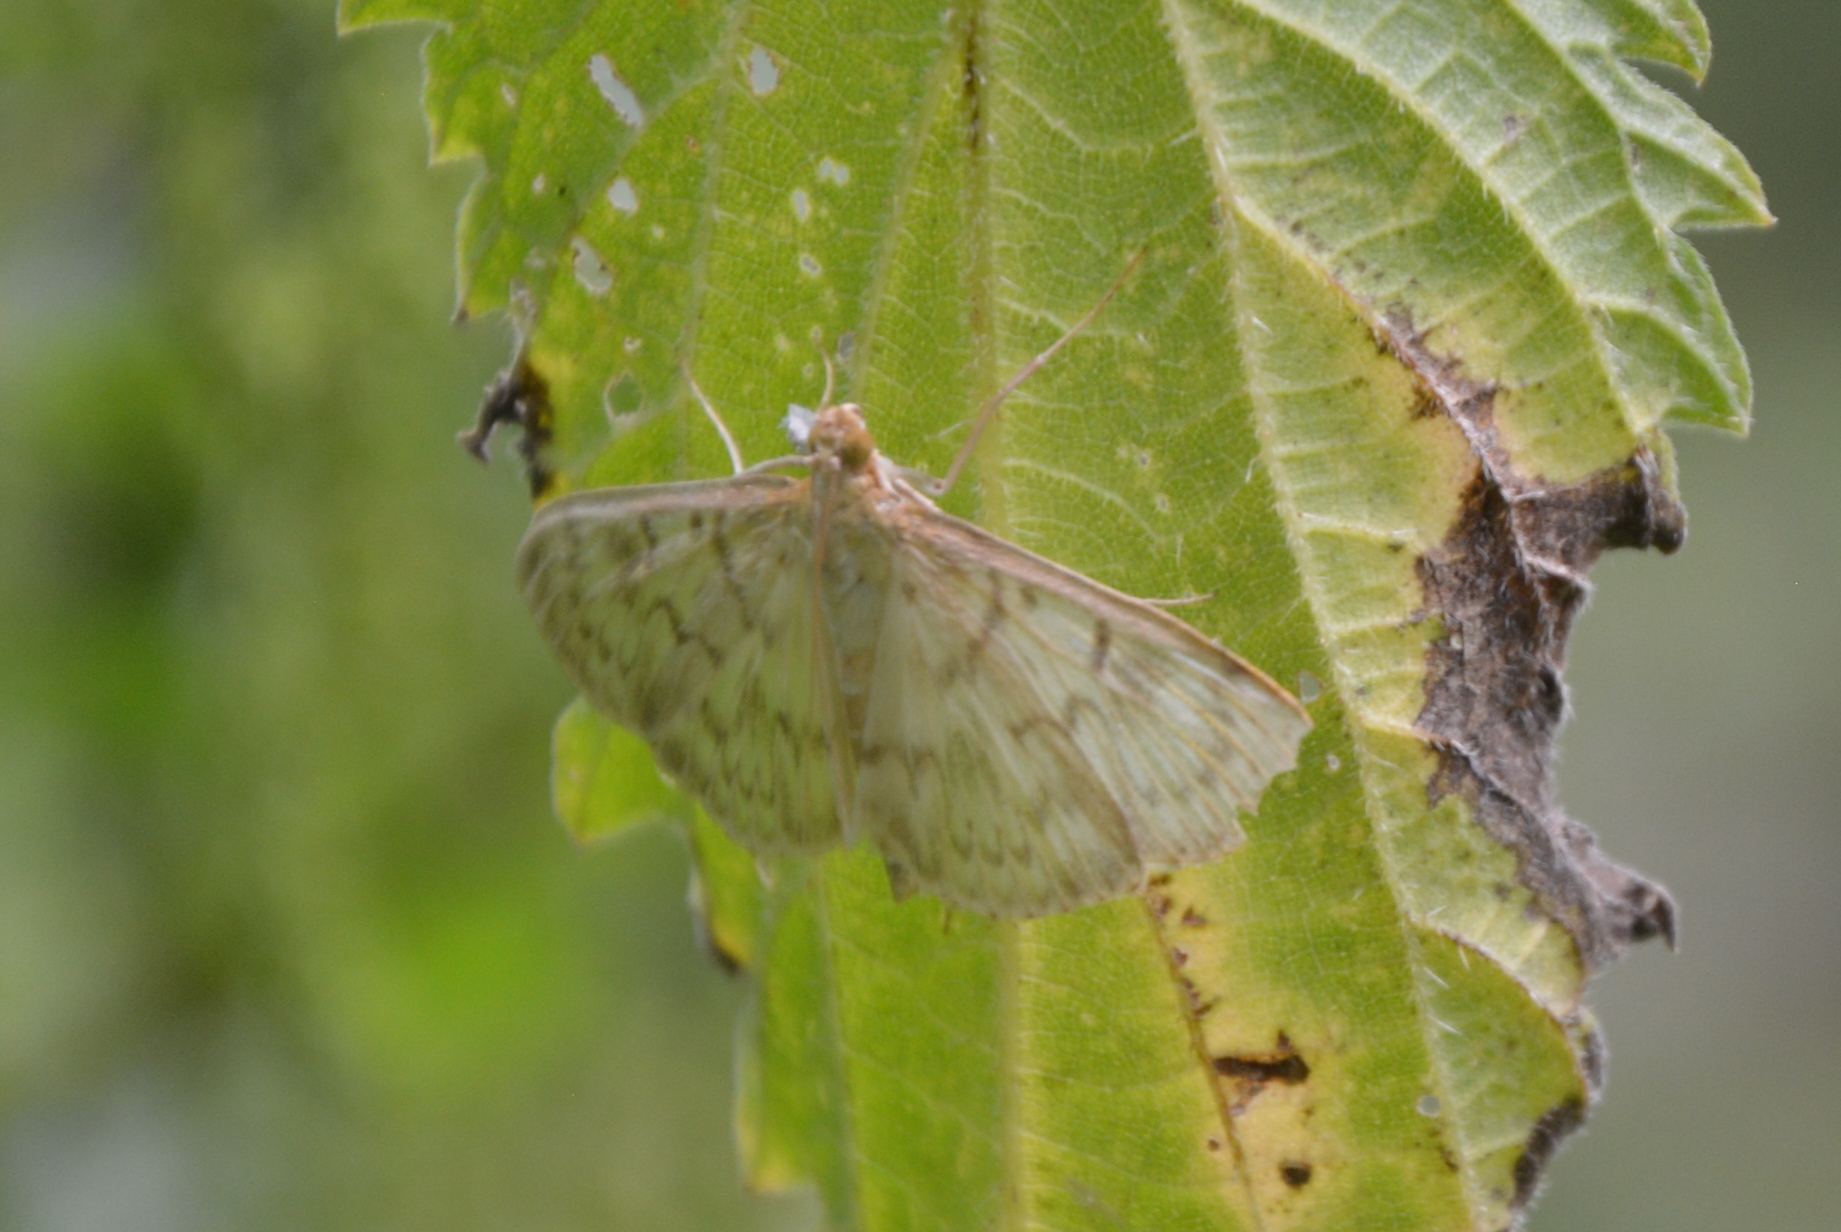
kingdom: Animalia
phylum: Arthropoda
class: Insecta
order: Lepidoptera
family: Crambidae
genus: Patania
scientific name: Patania ruralis
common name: Mother of pearl
